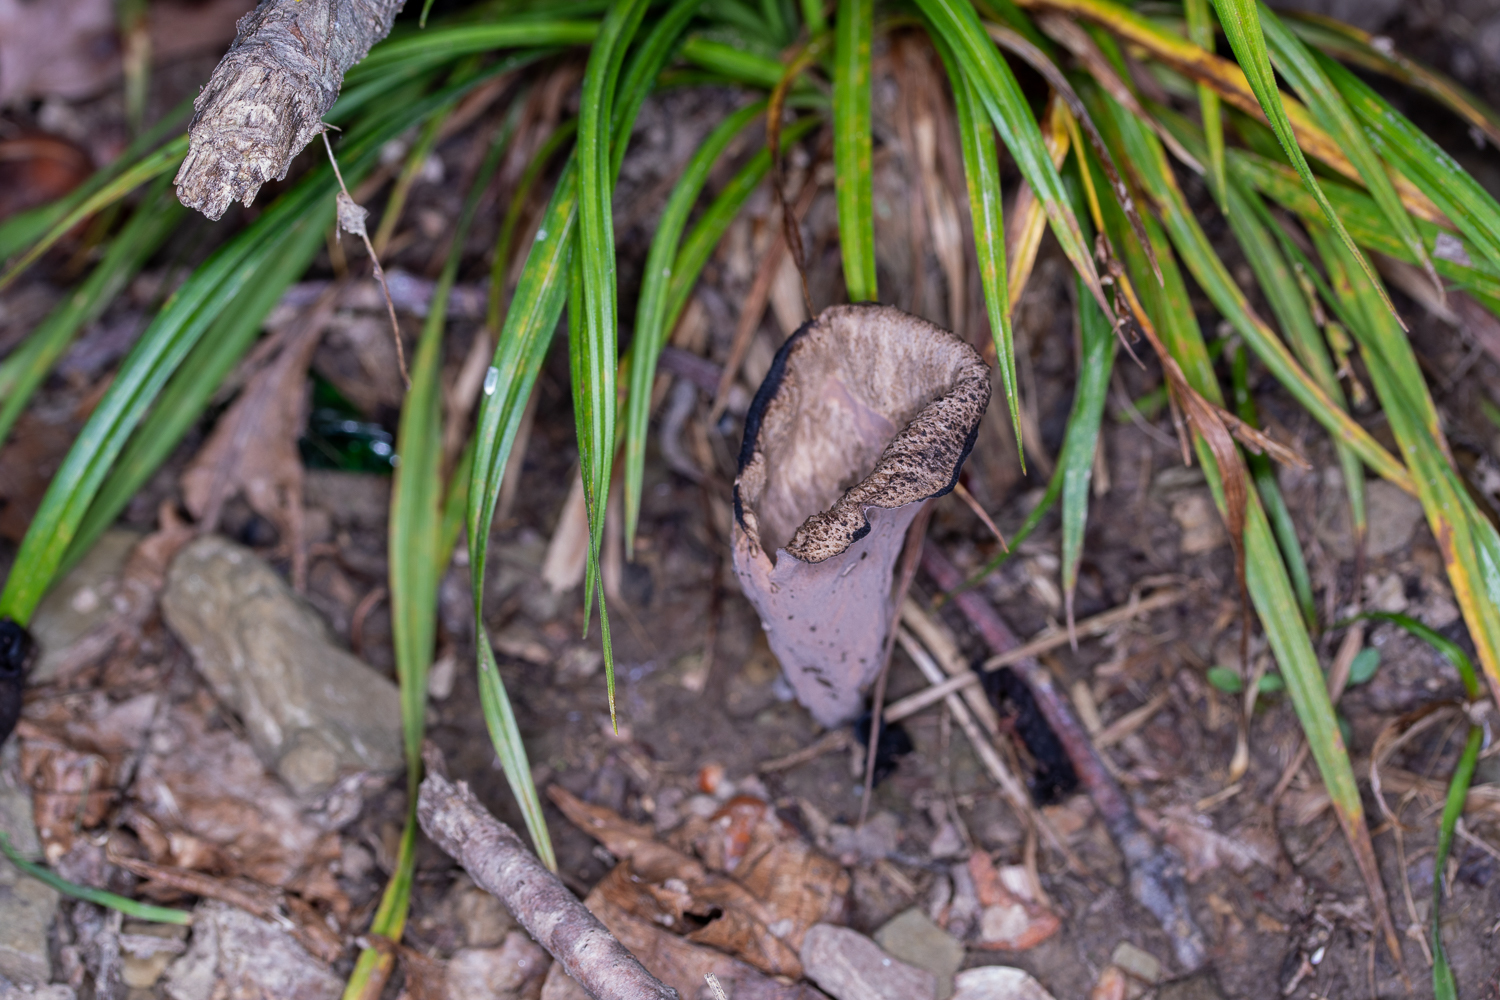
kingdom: Fungi
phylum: Basidiomycota
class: Agaricomycetes
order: Cantharellales
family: Hydnaceae
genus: Craterellus
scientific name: Craterellus cornucopioides
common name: Horn of plenty
